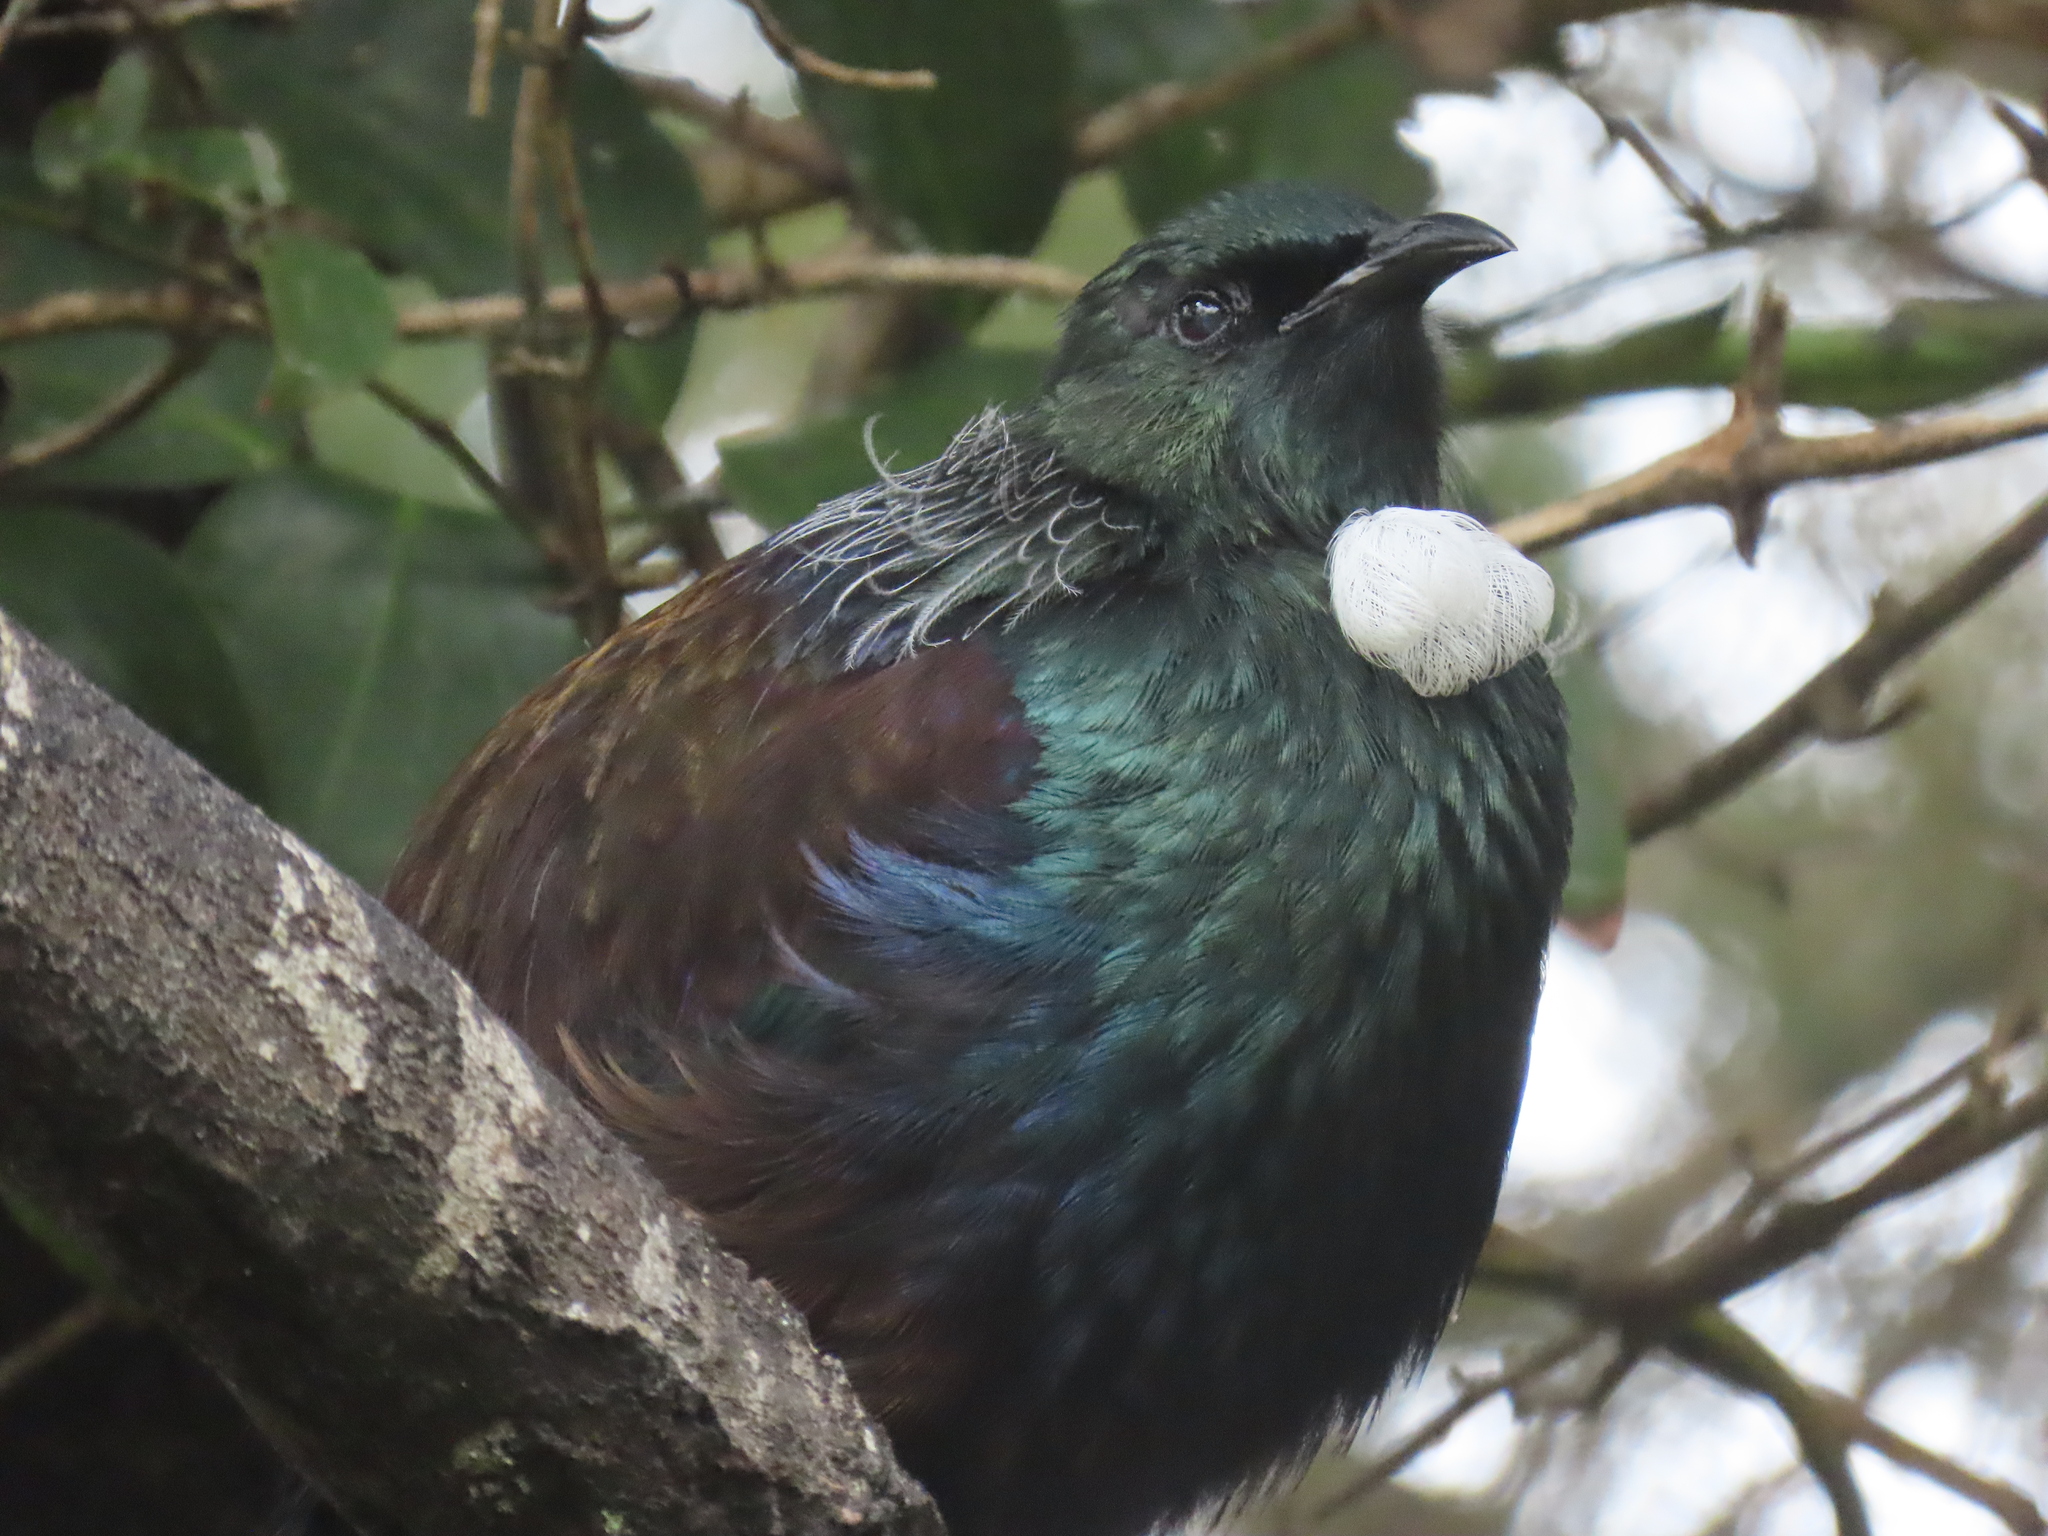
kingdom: Animalia
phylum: Chordata
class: Aves
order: Passeriformes
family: Meliphagidae
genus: Prosthemadera
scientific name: Prosthemadera novaeseelandiae
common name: Tui
